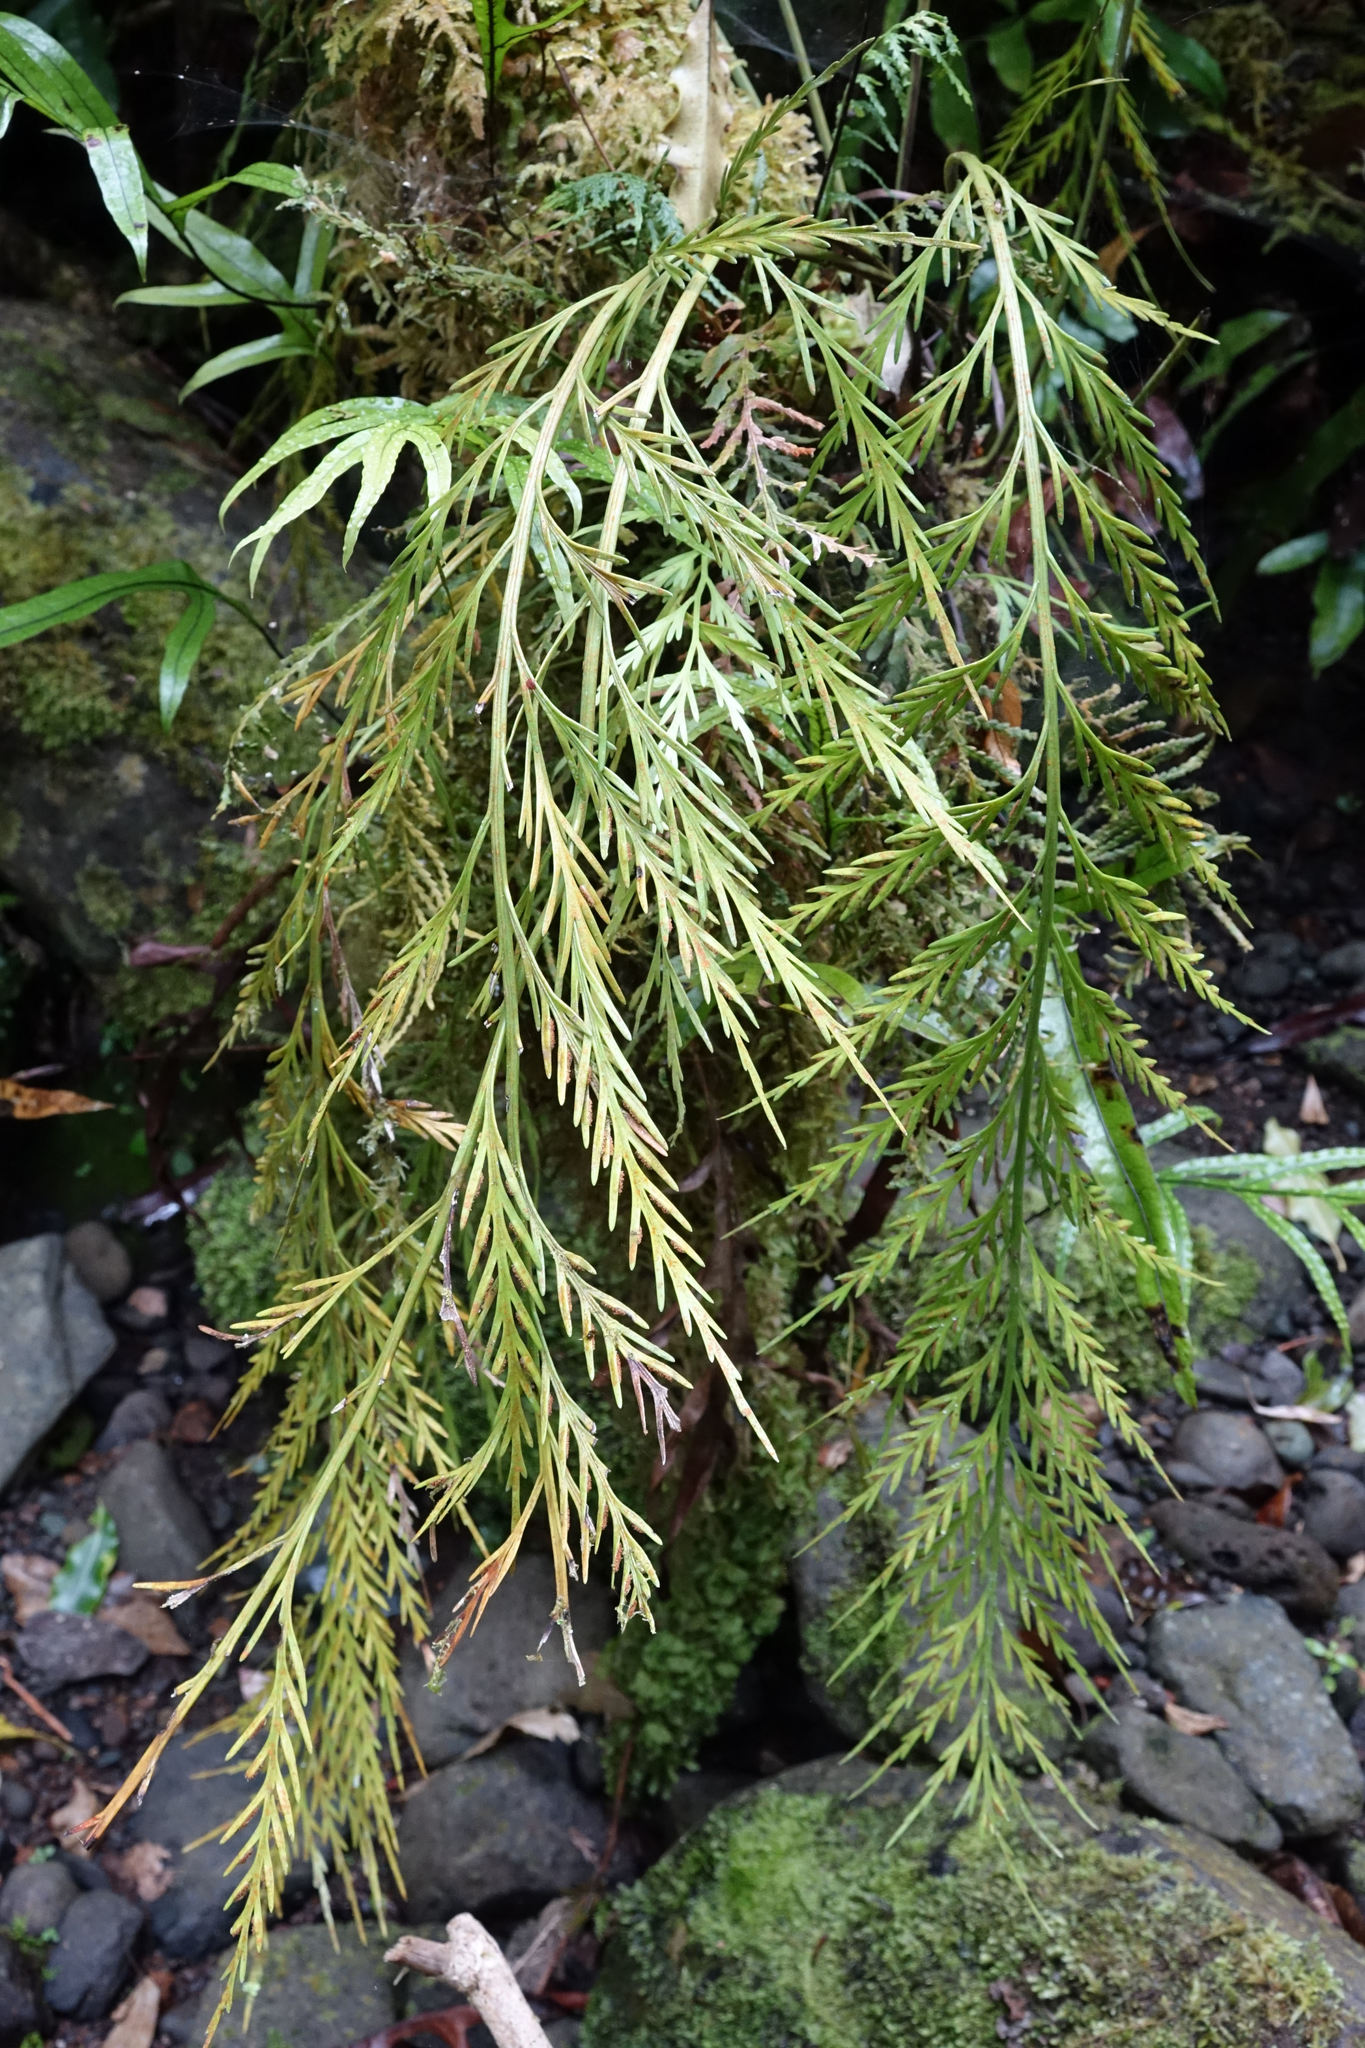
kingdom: Plantae
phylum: Tracheophyta
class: Polypodiopsida
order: Polypodiales
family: Aspleniaceae
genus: Asplenium
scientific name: Asplenium flaccidum
